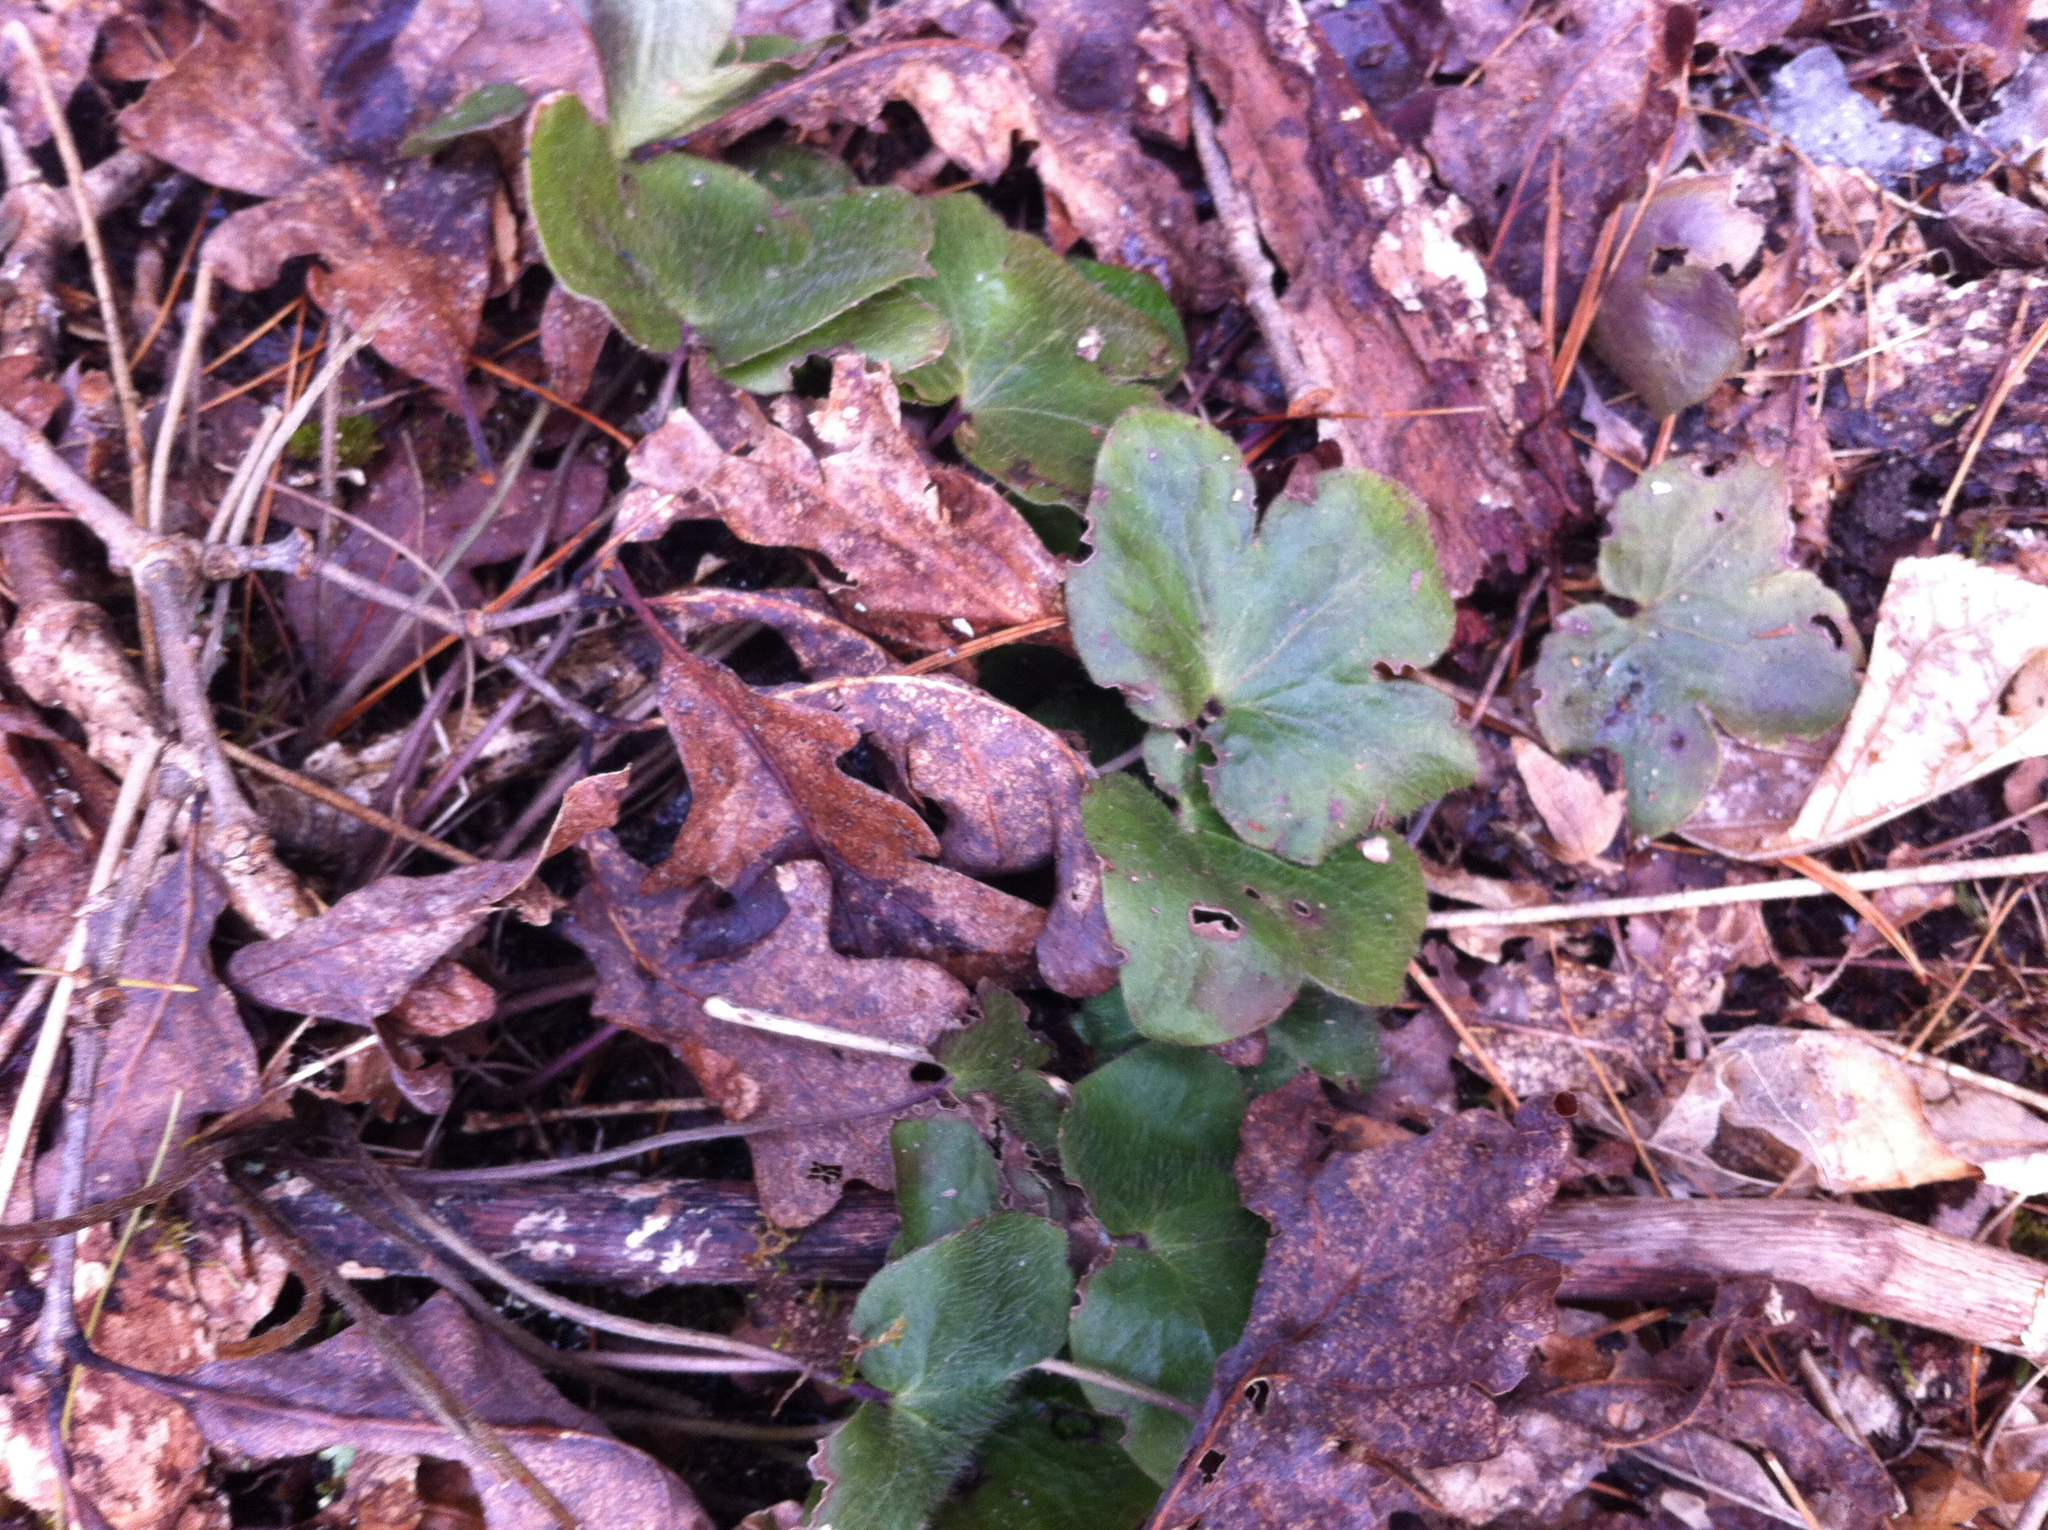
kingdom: Plantae
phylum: Tracheophyta
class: Magnoliopsida
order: Ranunculales
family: Ranunculaceae
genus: Hepatica
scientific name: Hepatica americana
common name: American hepatica
